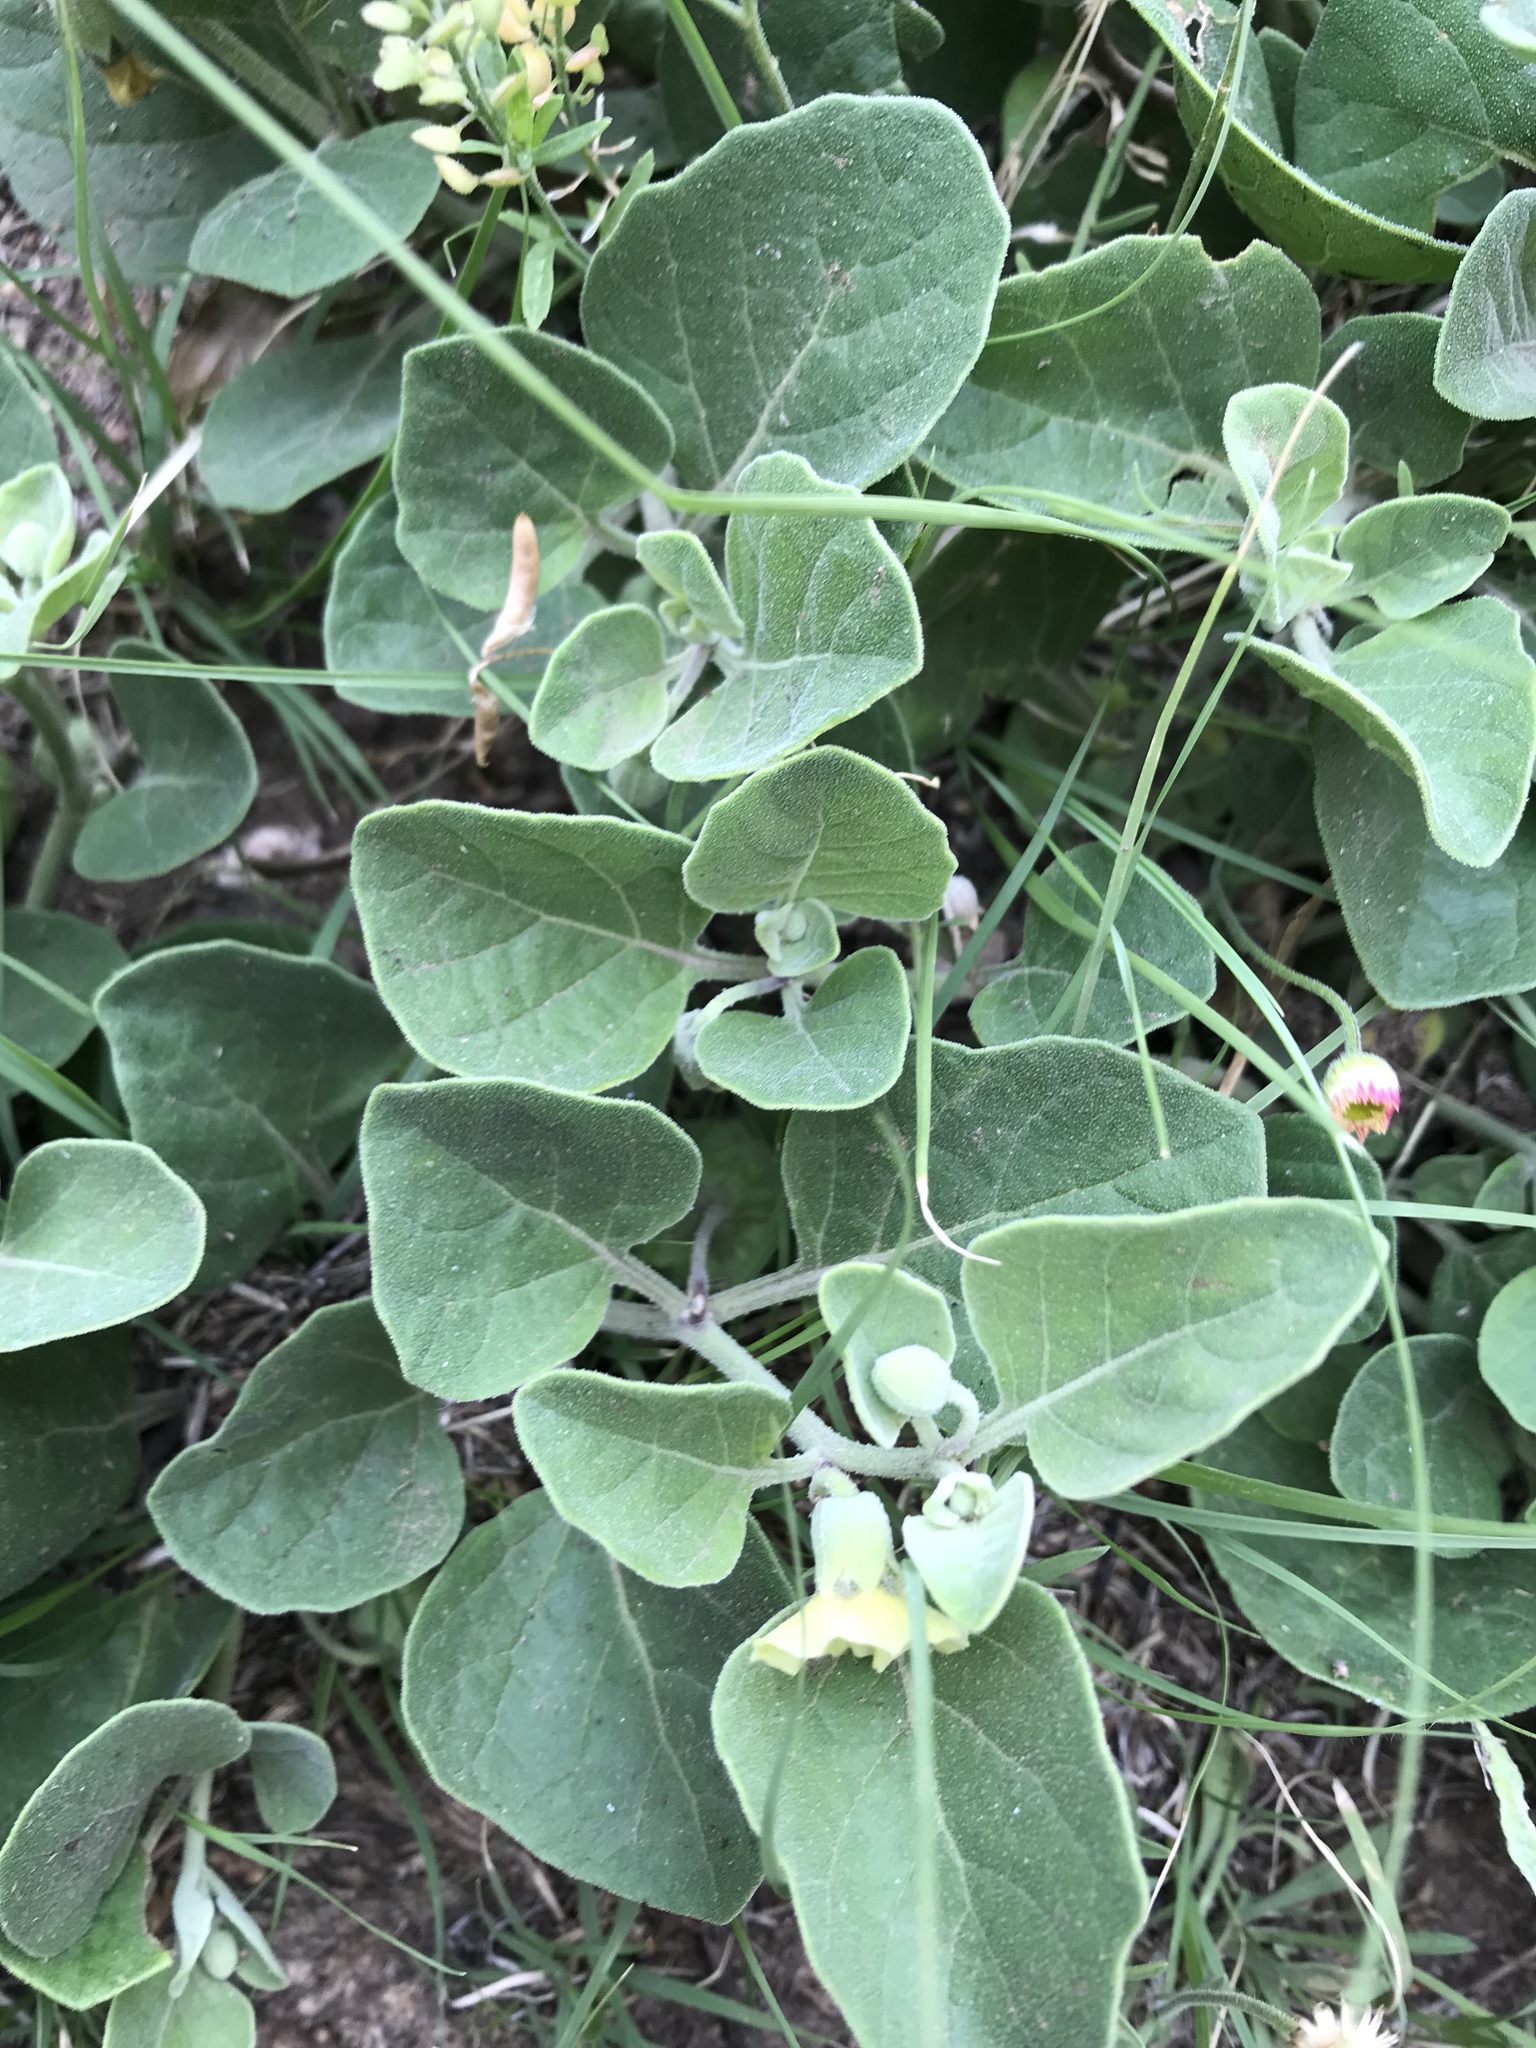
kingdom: Plantae
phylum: Tracheophyta
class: Magnoliopsida
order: Solanales
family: Solanaceae
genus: Physalis
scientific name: Physalis cinerascens
